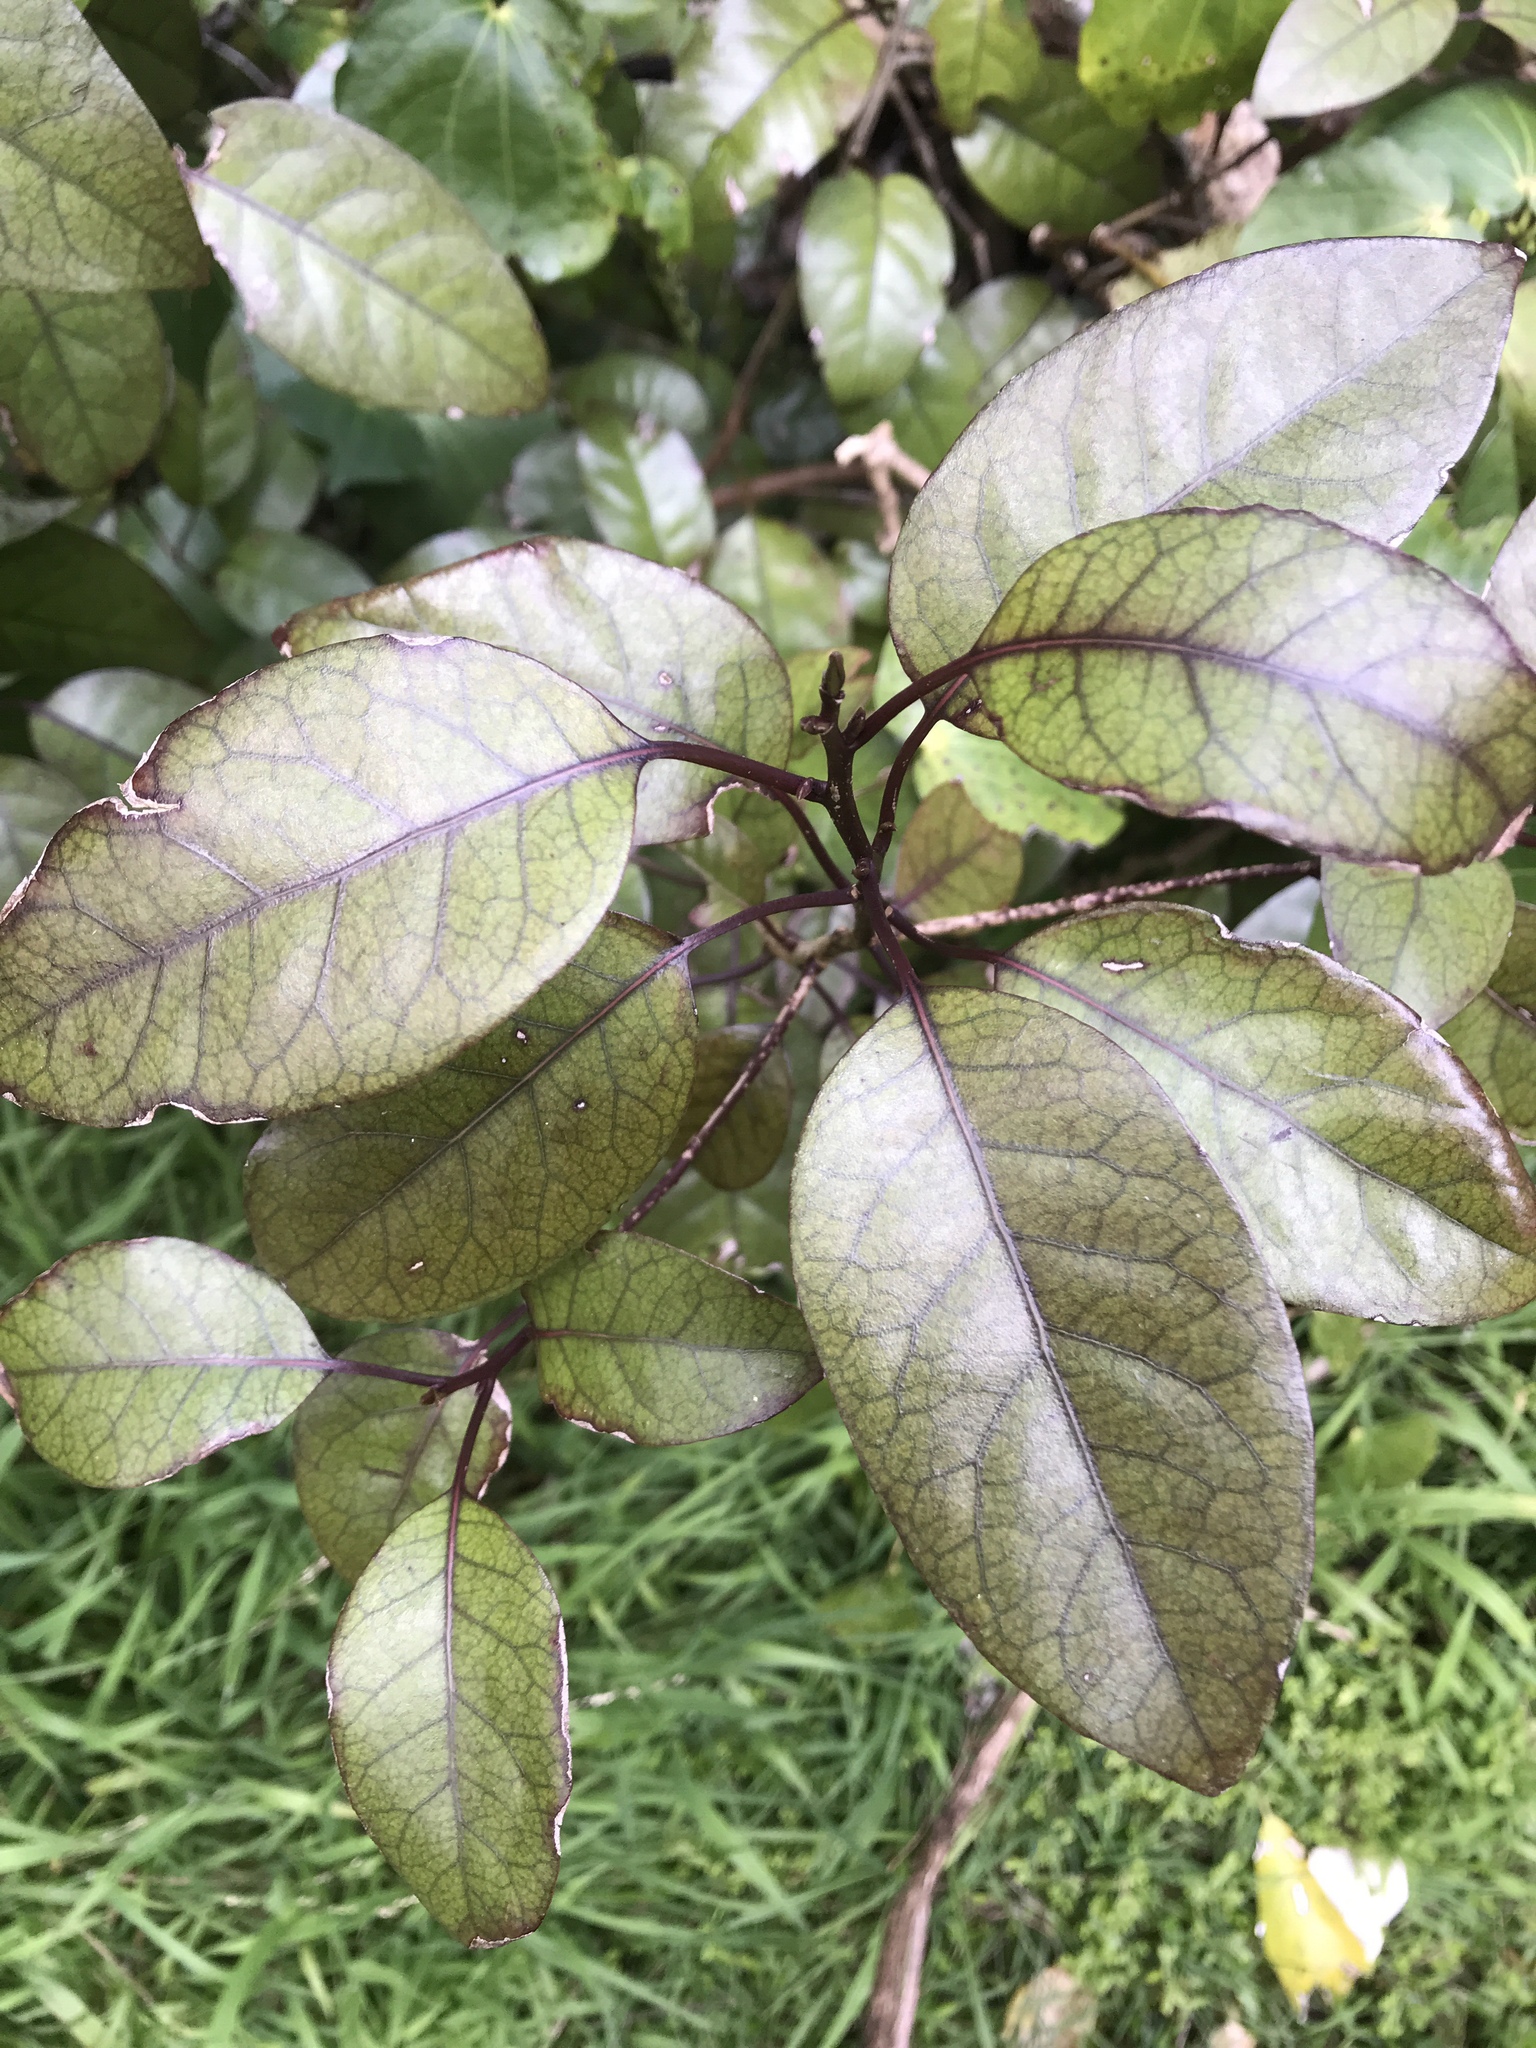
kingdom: Plantae
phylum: Tracheophyta
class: Magnoliopsida
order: Laurales
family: Lauraceae
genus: Litsea
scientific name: Litsea calicaris
